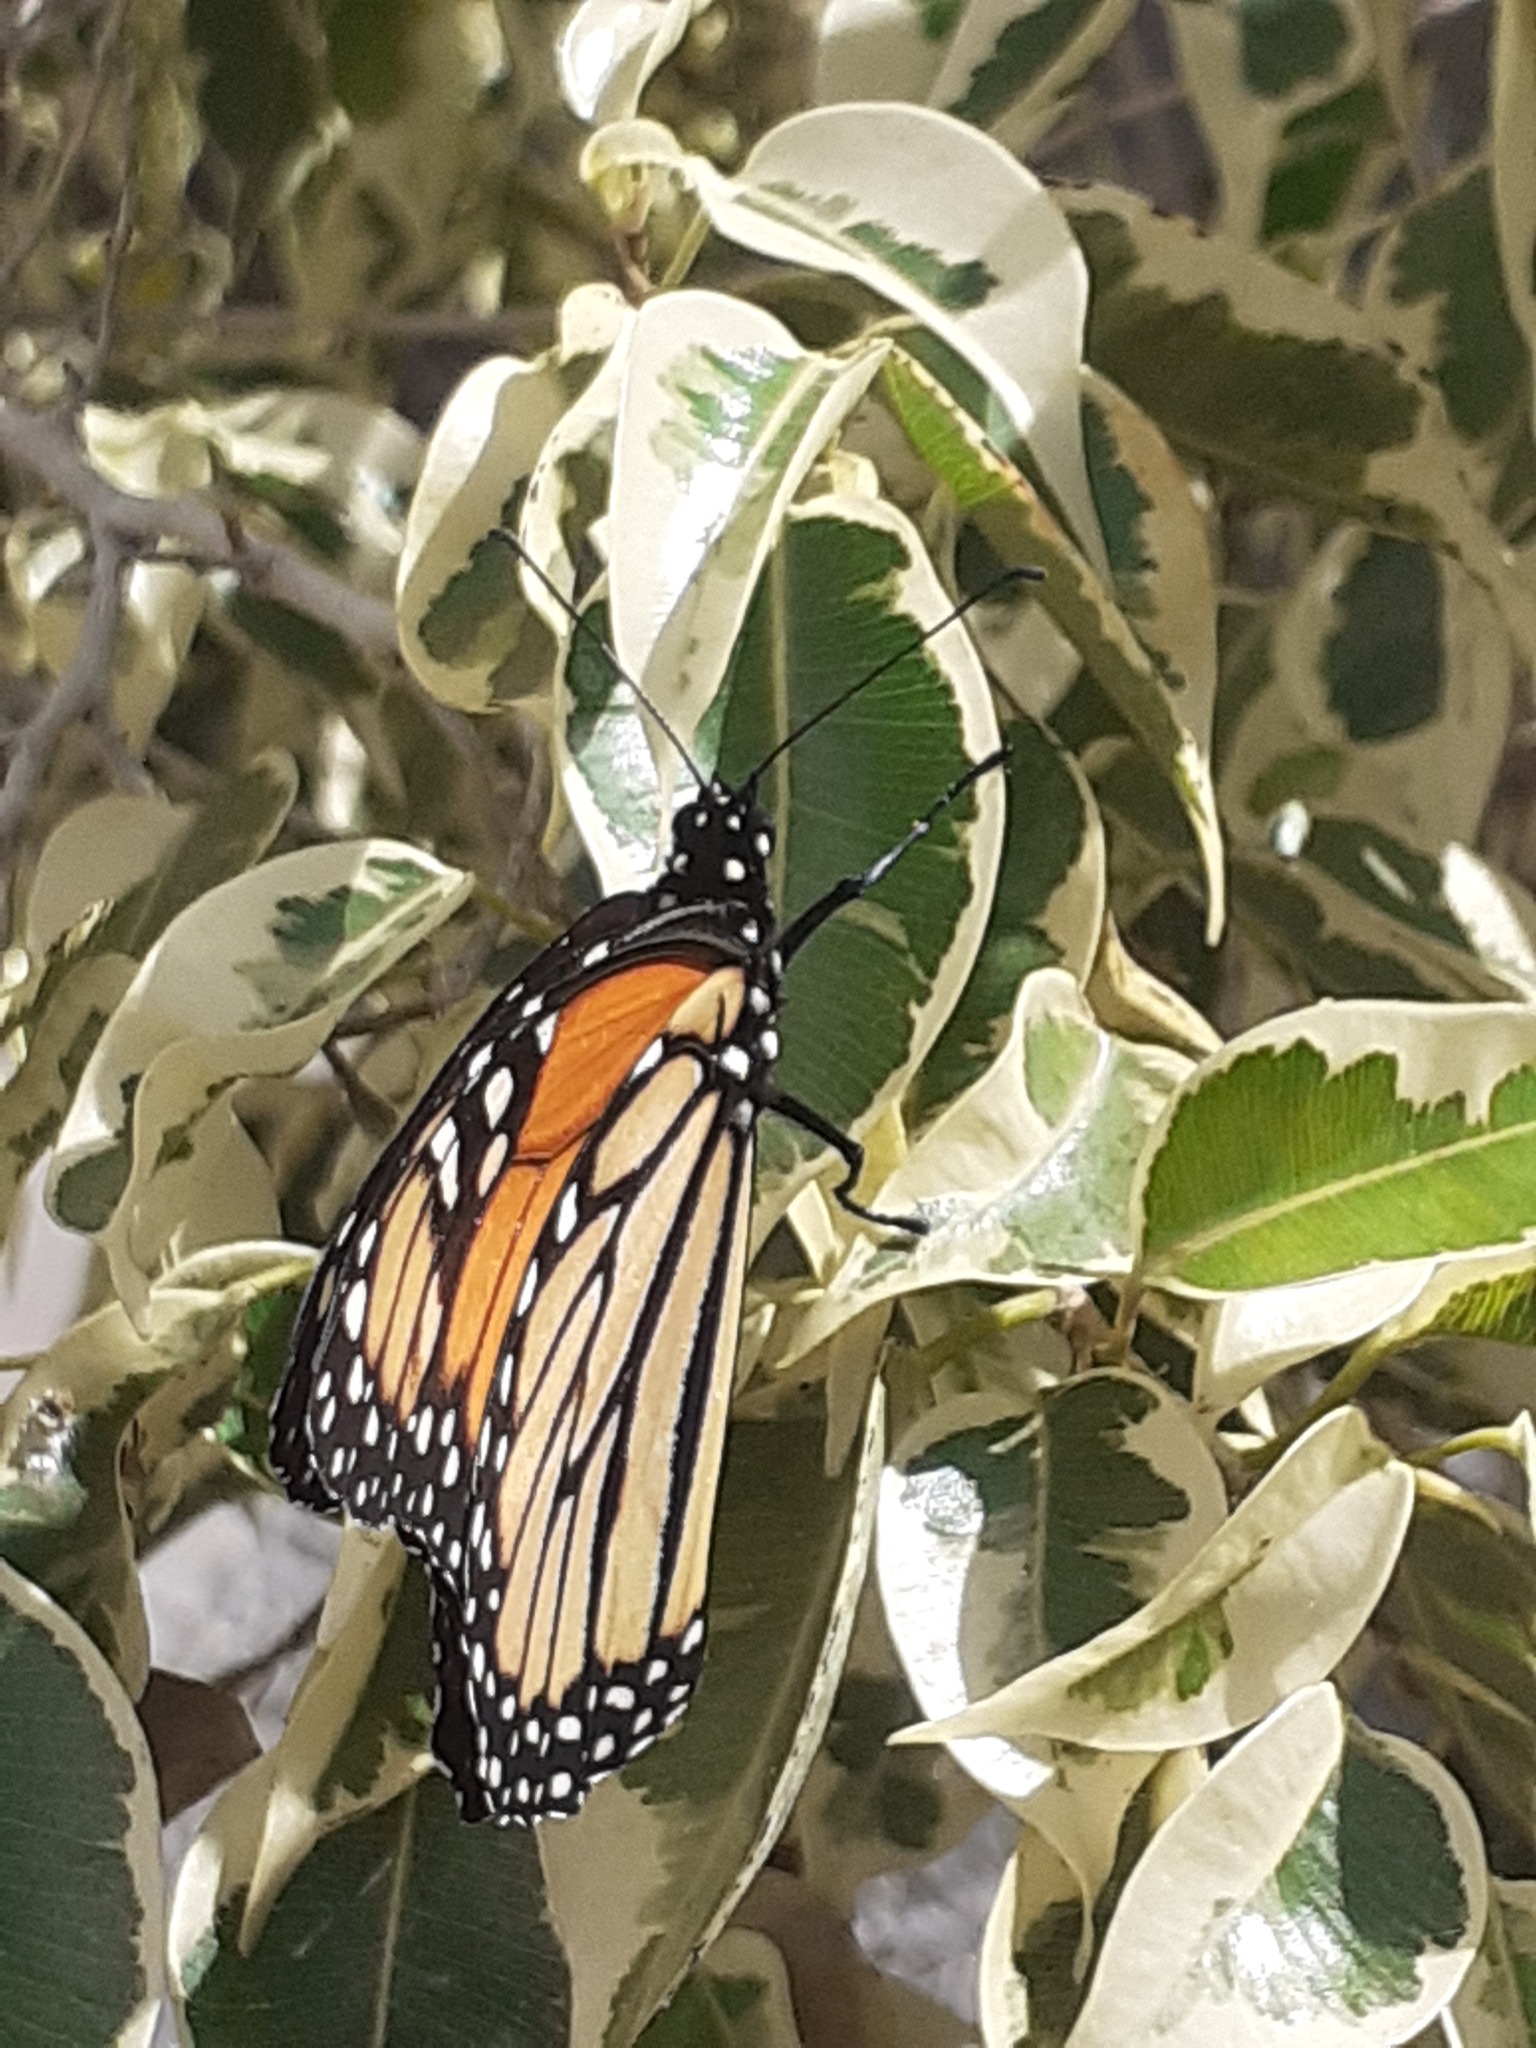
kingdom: Animalia
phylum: Arthropoda
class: Insecta
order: Lepidoptera
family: Nymphalidae
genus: Danaus
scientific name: Danaus plexippus
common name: Monarch
